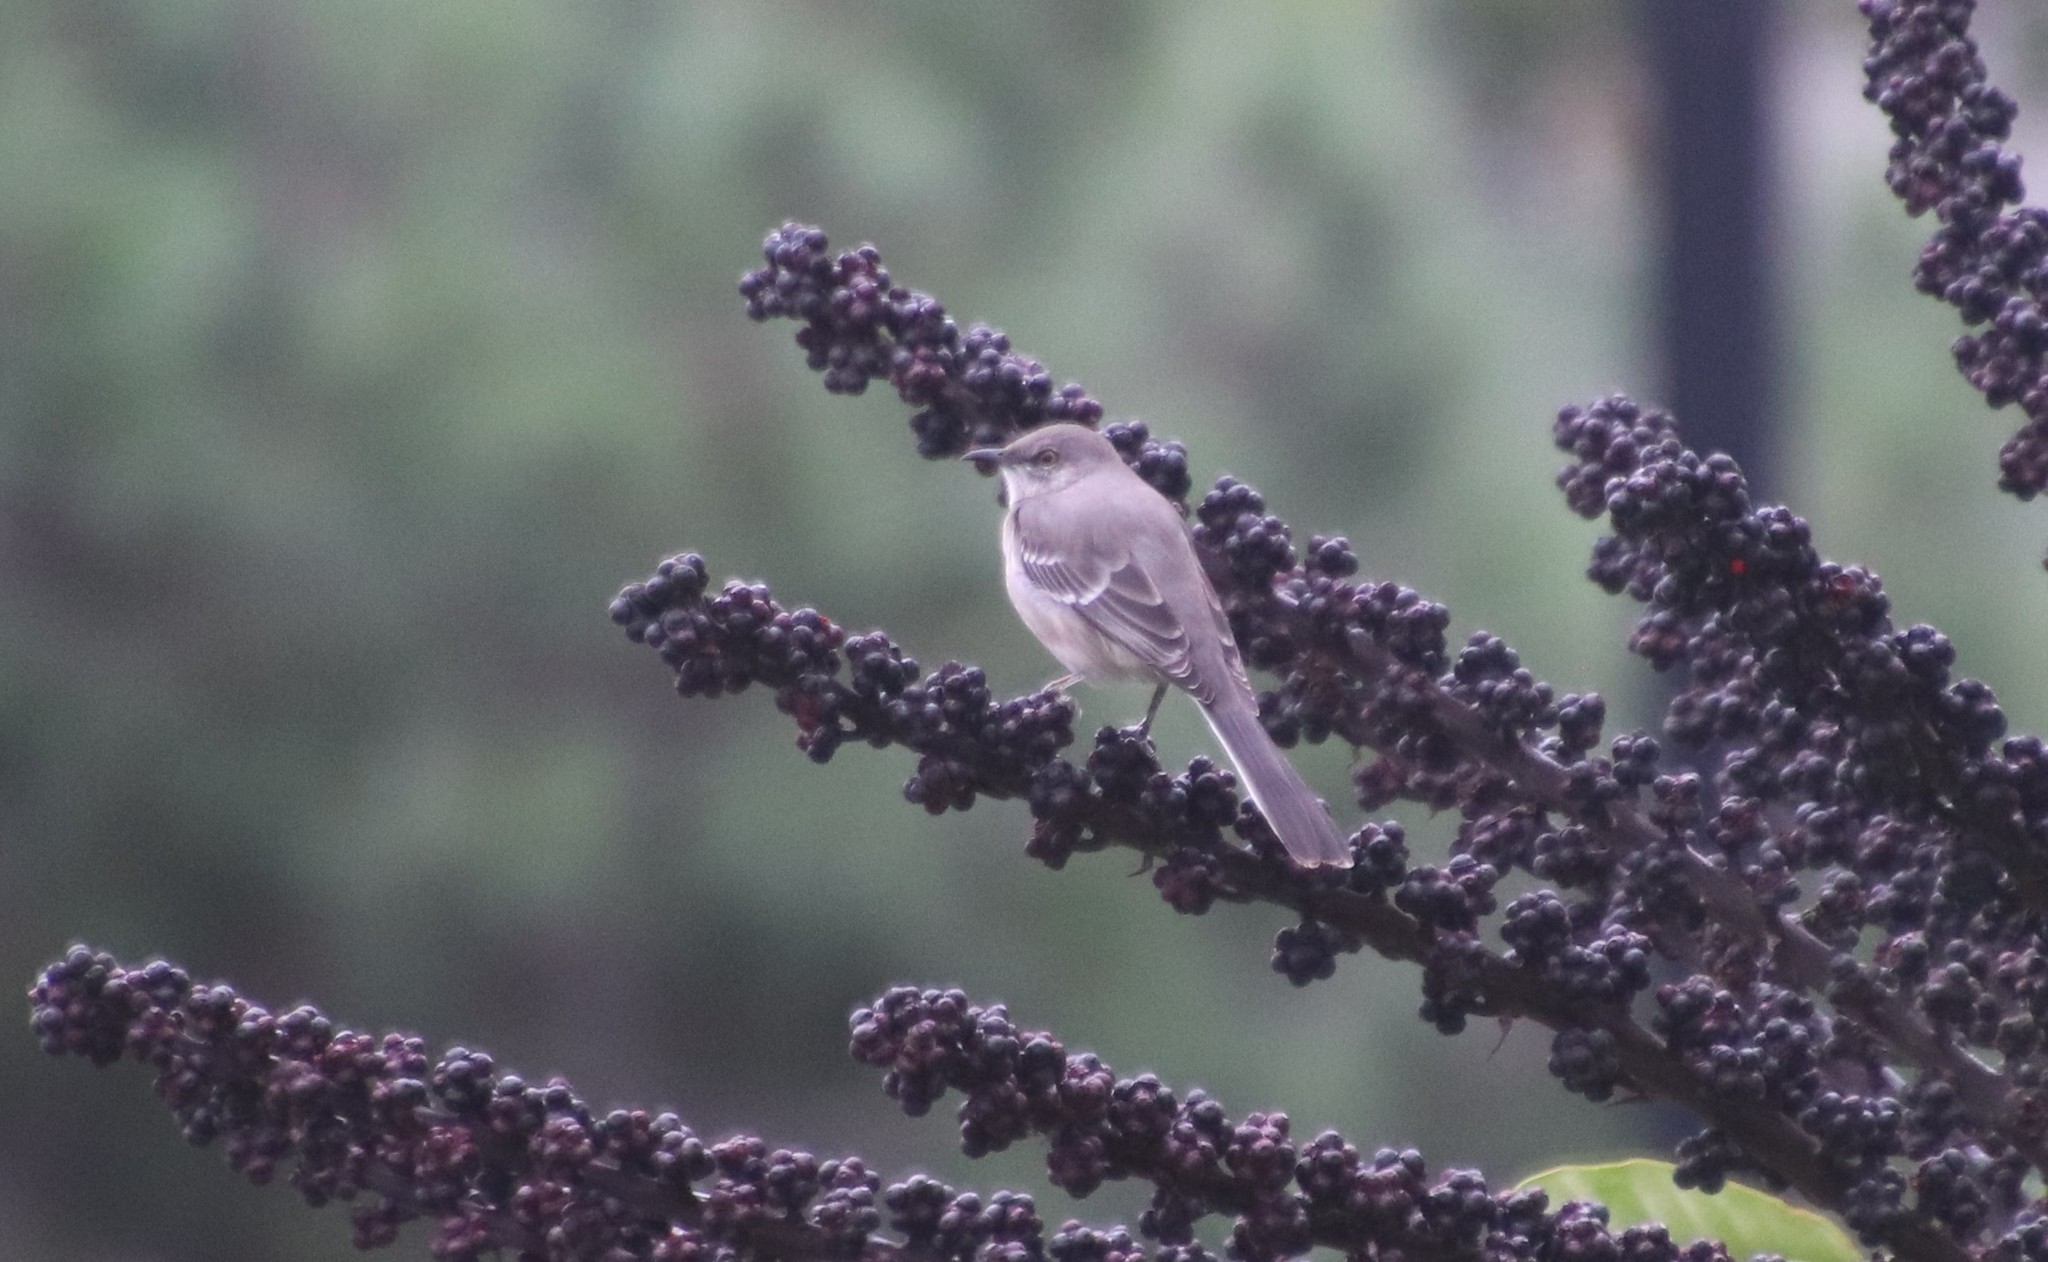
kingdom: Animalia
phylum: Chordata
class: Aves
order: Passeriformes
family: Mimidae
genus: Mimus
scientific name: Mimus polyglottos
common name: Northern mockingbird
